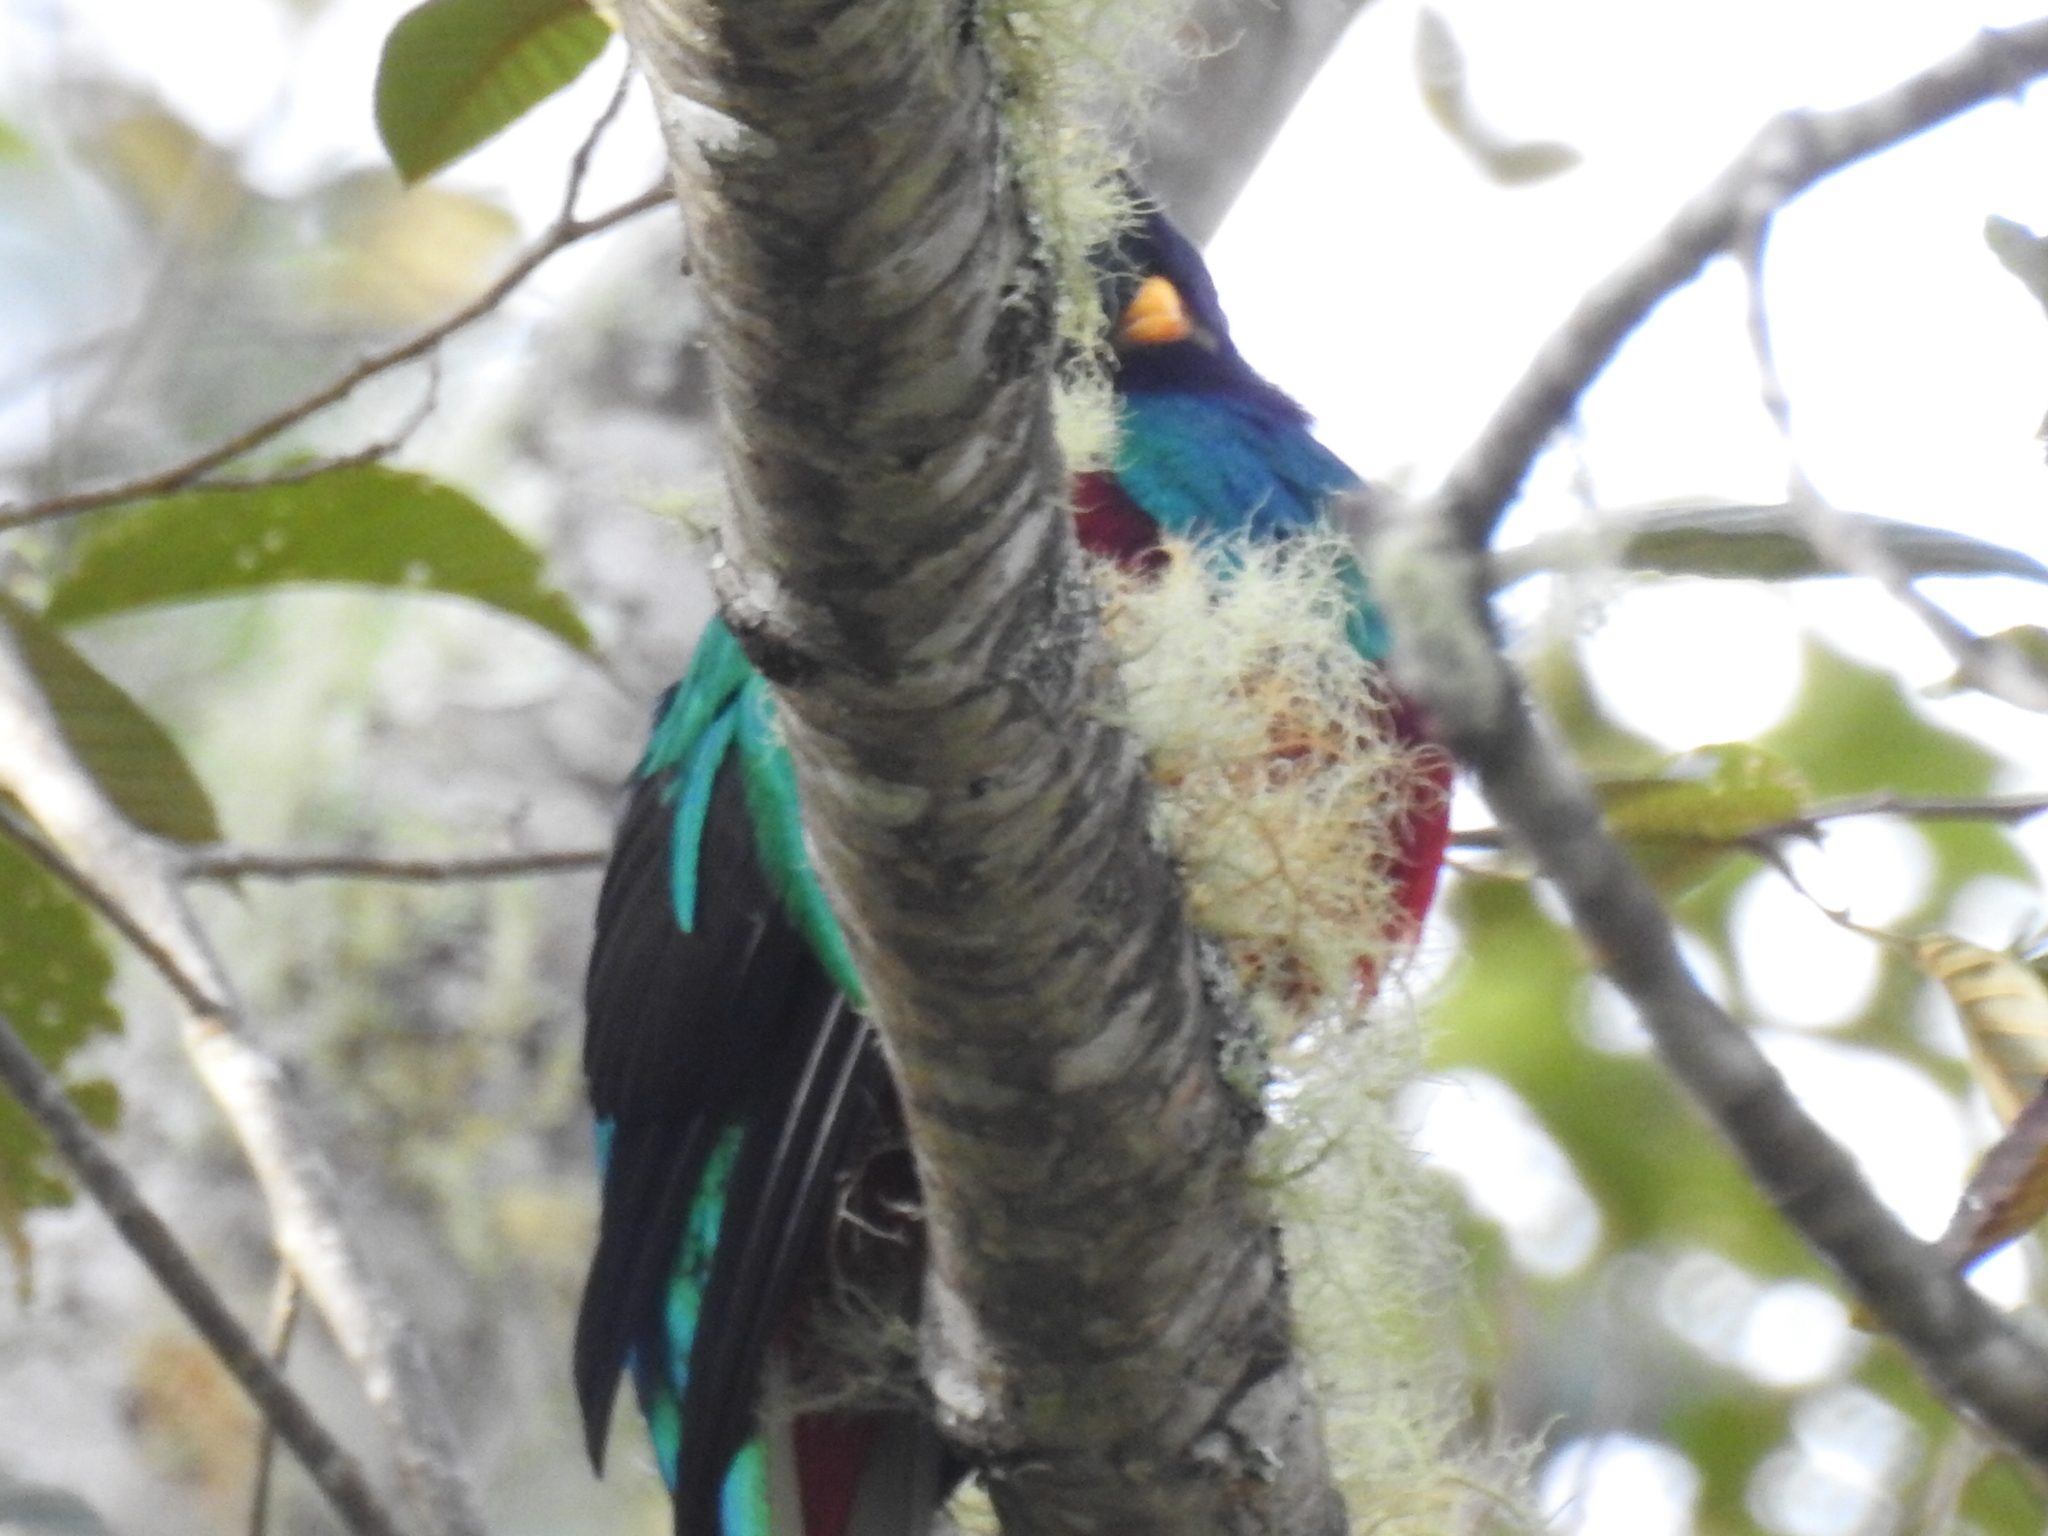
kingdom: Animalia
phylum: Chordata
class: Aves
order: Trogoniformes
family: Trogonidae
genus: Pharomachrus
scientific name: Pharomachrus mocinno
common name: Resplendent quetzal
